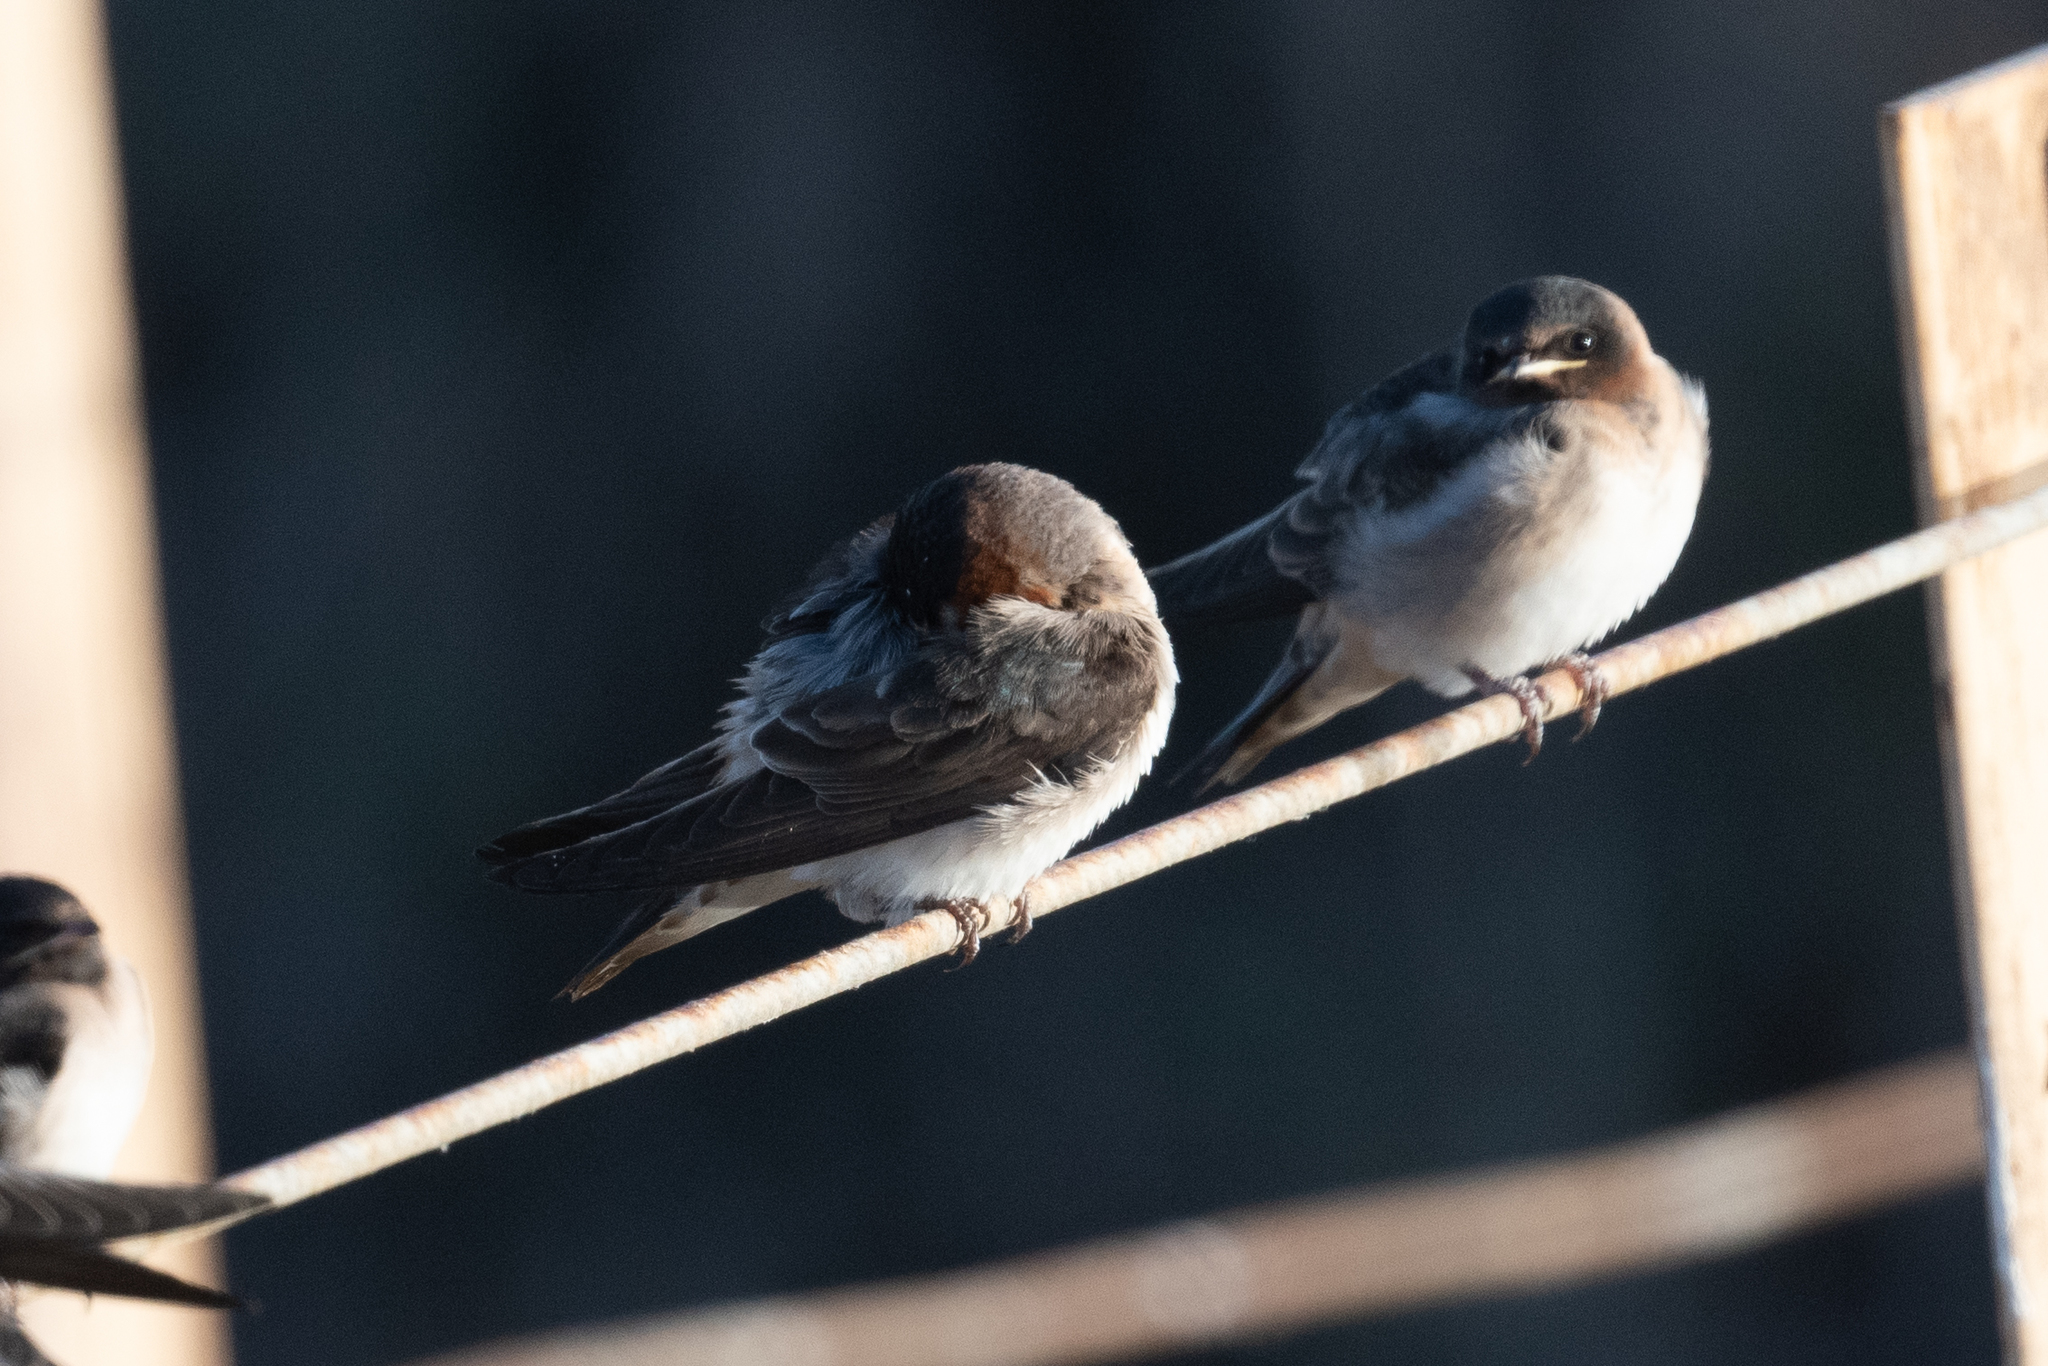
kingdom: Animalia
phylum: Chordata
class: Aves
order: Passeriformes
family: Hirundinidae
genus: Petrochelidon
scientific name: Petrochelidon pyrrhonota
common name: American cliff swallow
